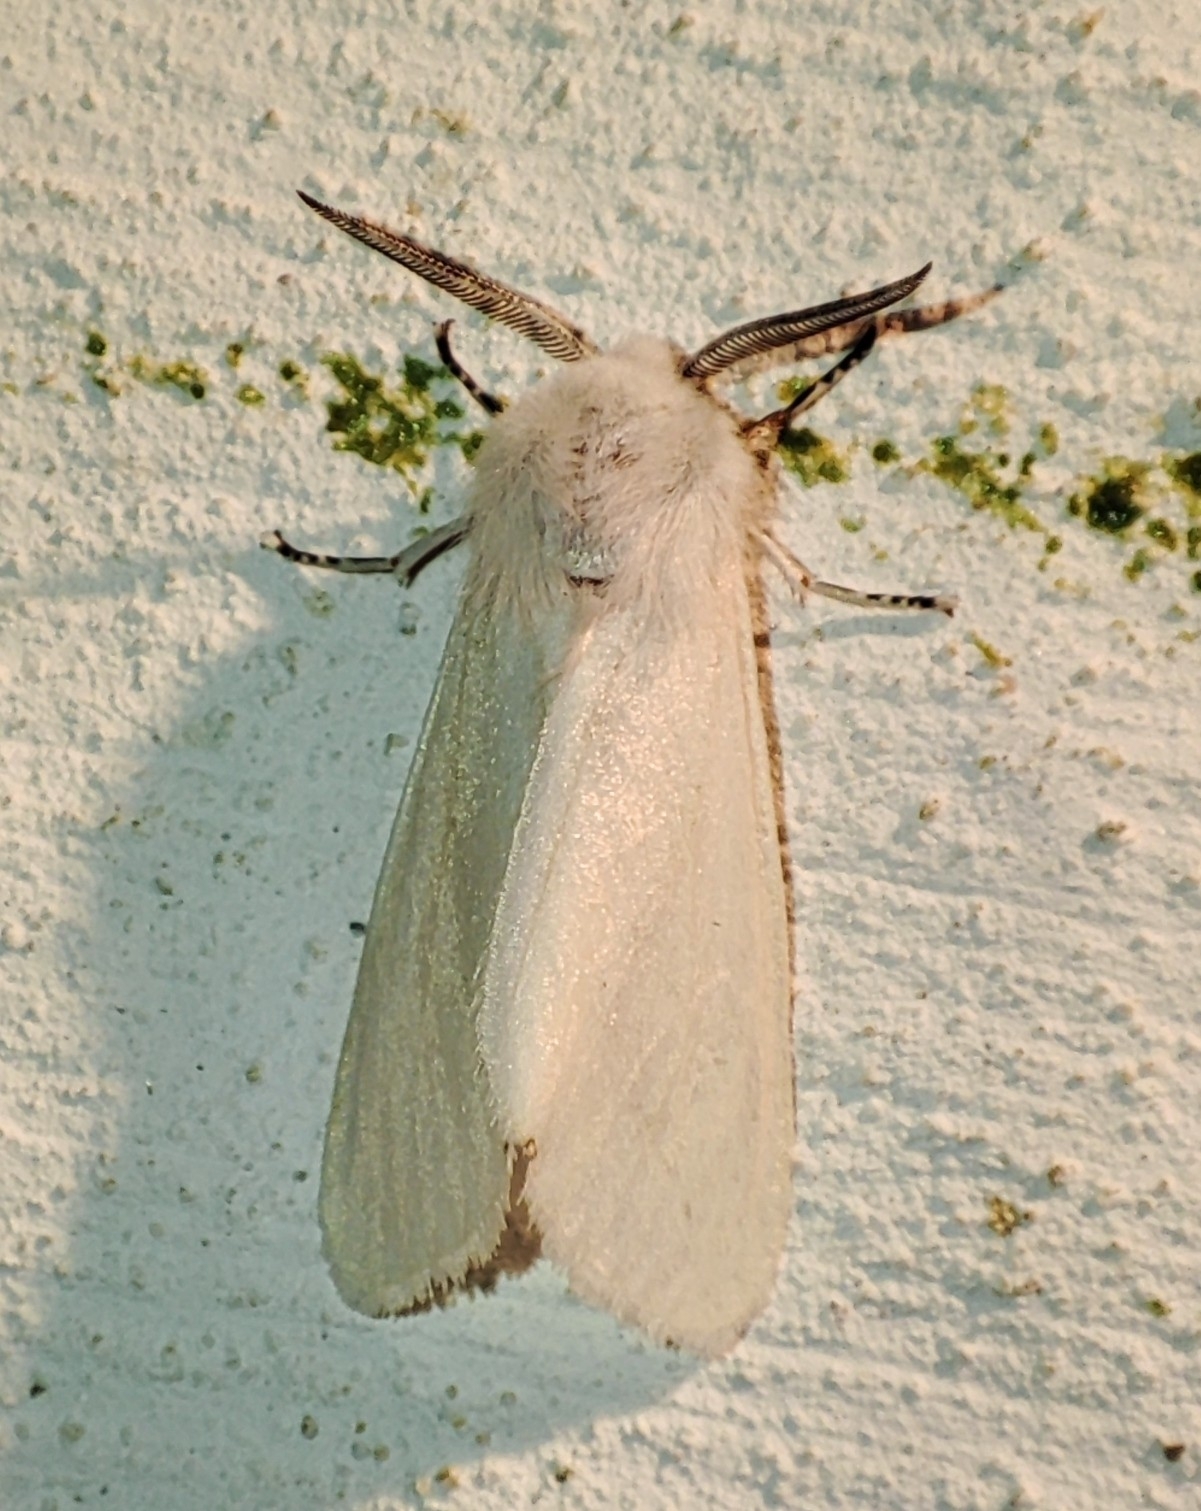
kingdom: Animalia
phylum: Arthropoda
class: Insecta
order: Lepidoptera
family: Erebidae
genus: Hyphantria
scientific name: Hyphantria cunea
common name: American white moth
